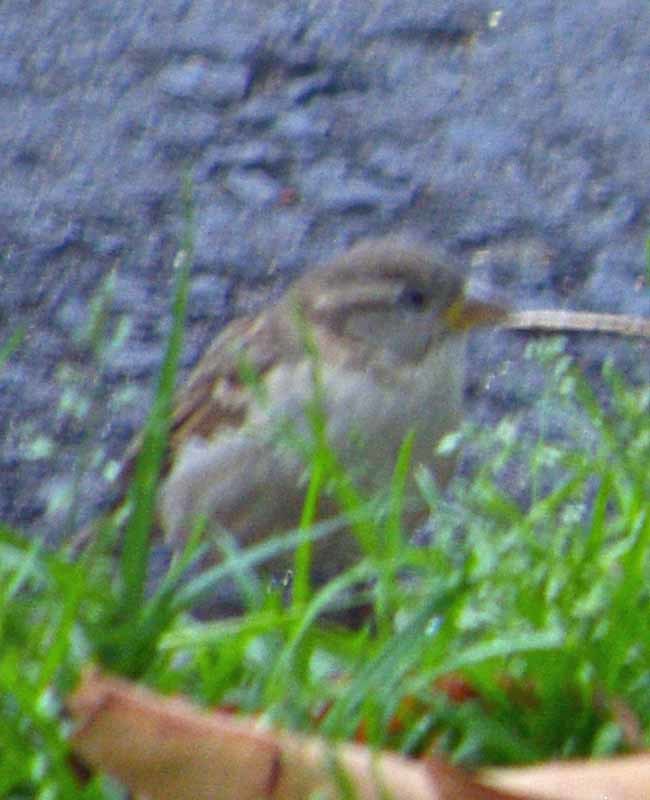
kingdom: Animalia
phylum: Chordata
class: Aves
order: Passeriformes
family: Passeridae
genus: Passer
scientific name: Passer domesticus
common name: House sparrow
